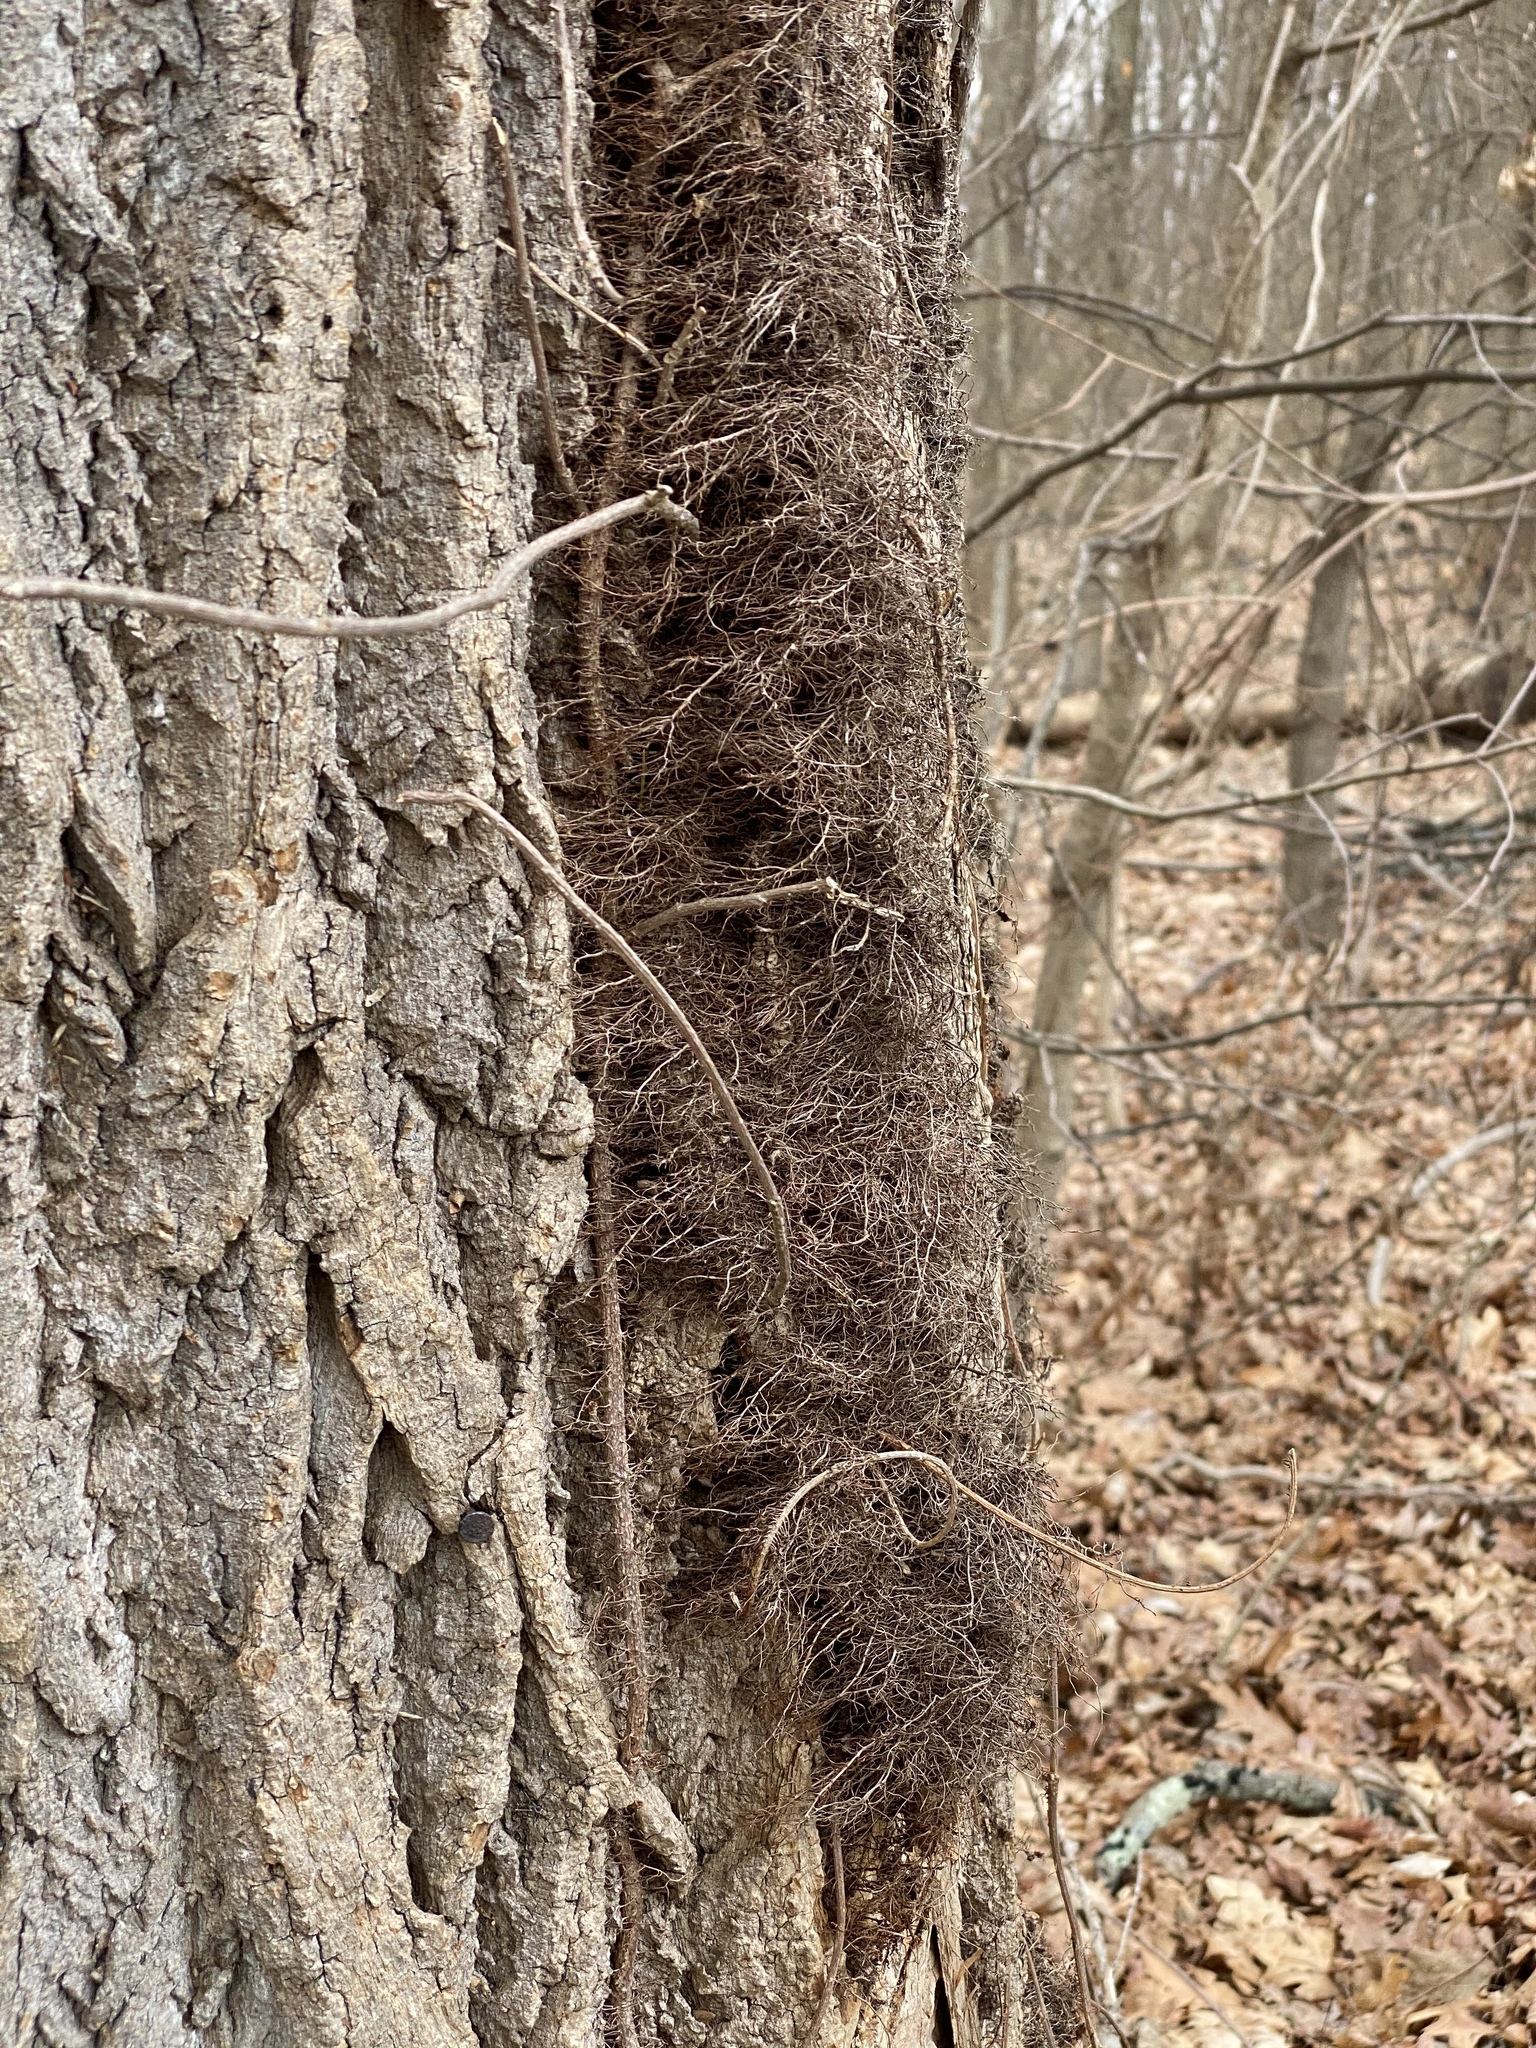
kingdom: Plantae
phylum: Tracheophyta
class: Magnoliopsida
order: Sapindales
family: Anacardiaceae
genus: Toxicodendron
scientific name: Toxicodendron radicans
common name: Poison ivy
